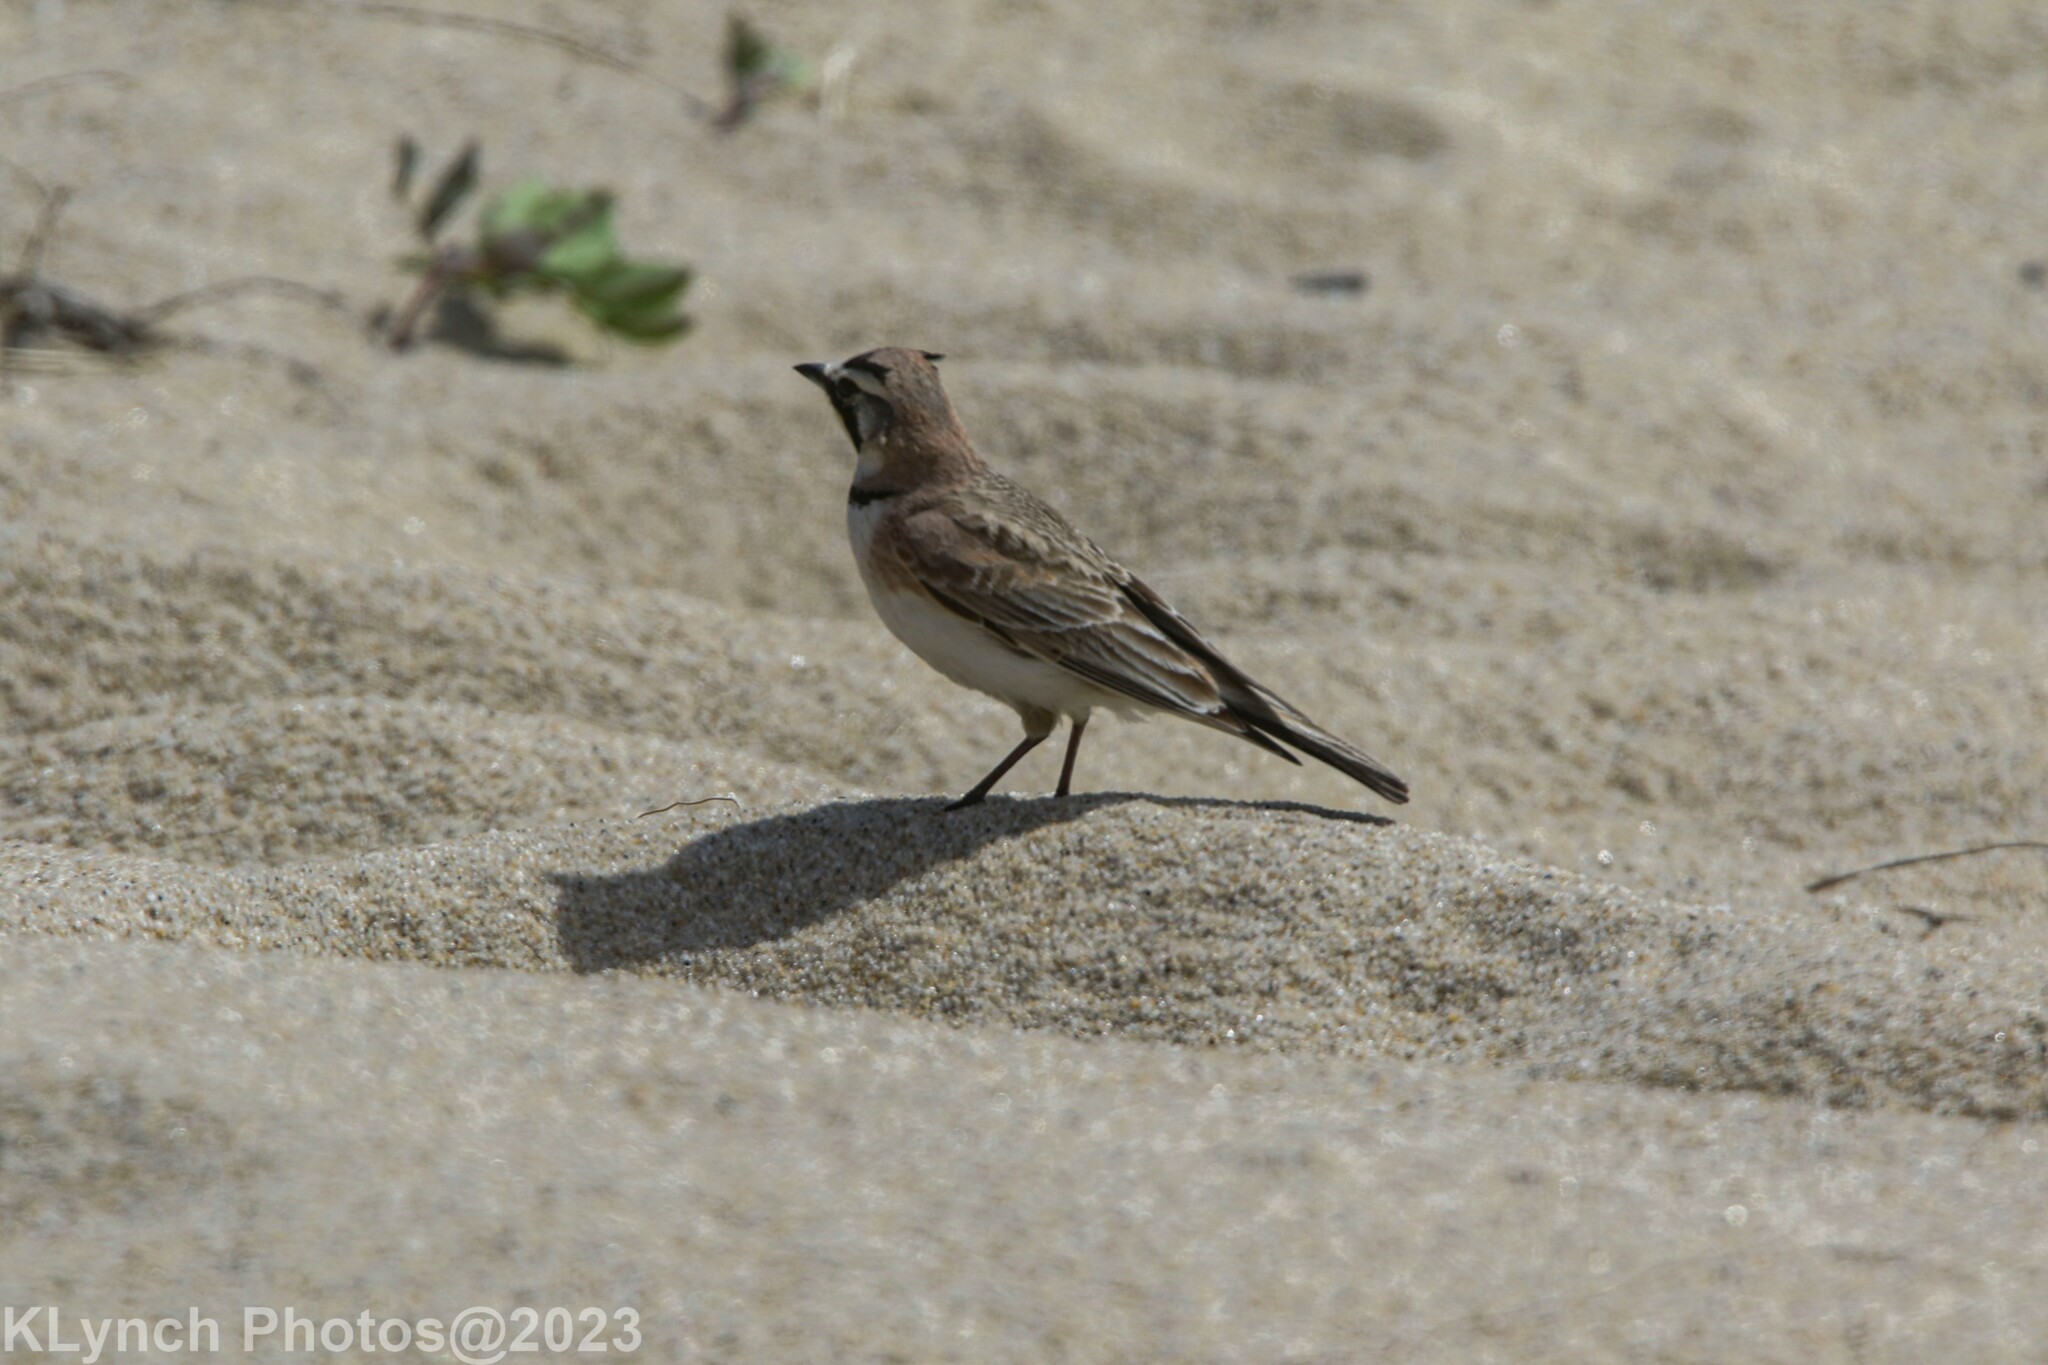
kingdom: Animalia
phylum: Chordata
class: Aves
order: Passeriformes
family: Alaudidae
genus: Eremophila
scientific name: Eremophila alpestris
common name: Horned lark
